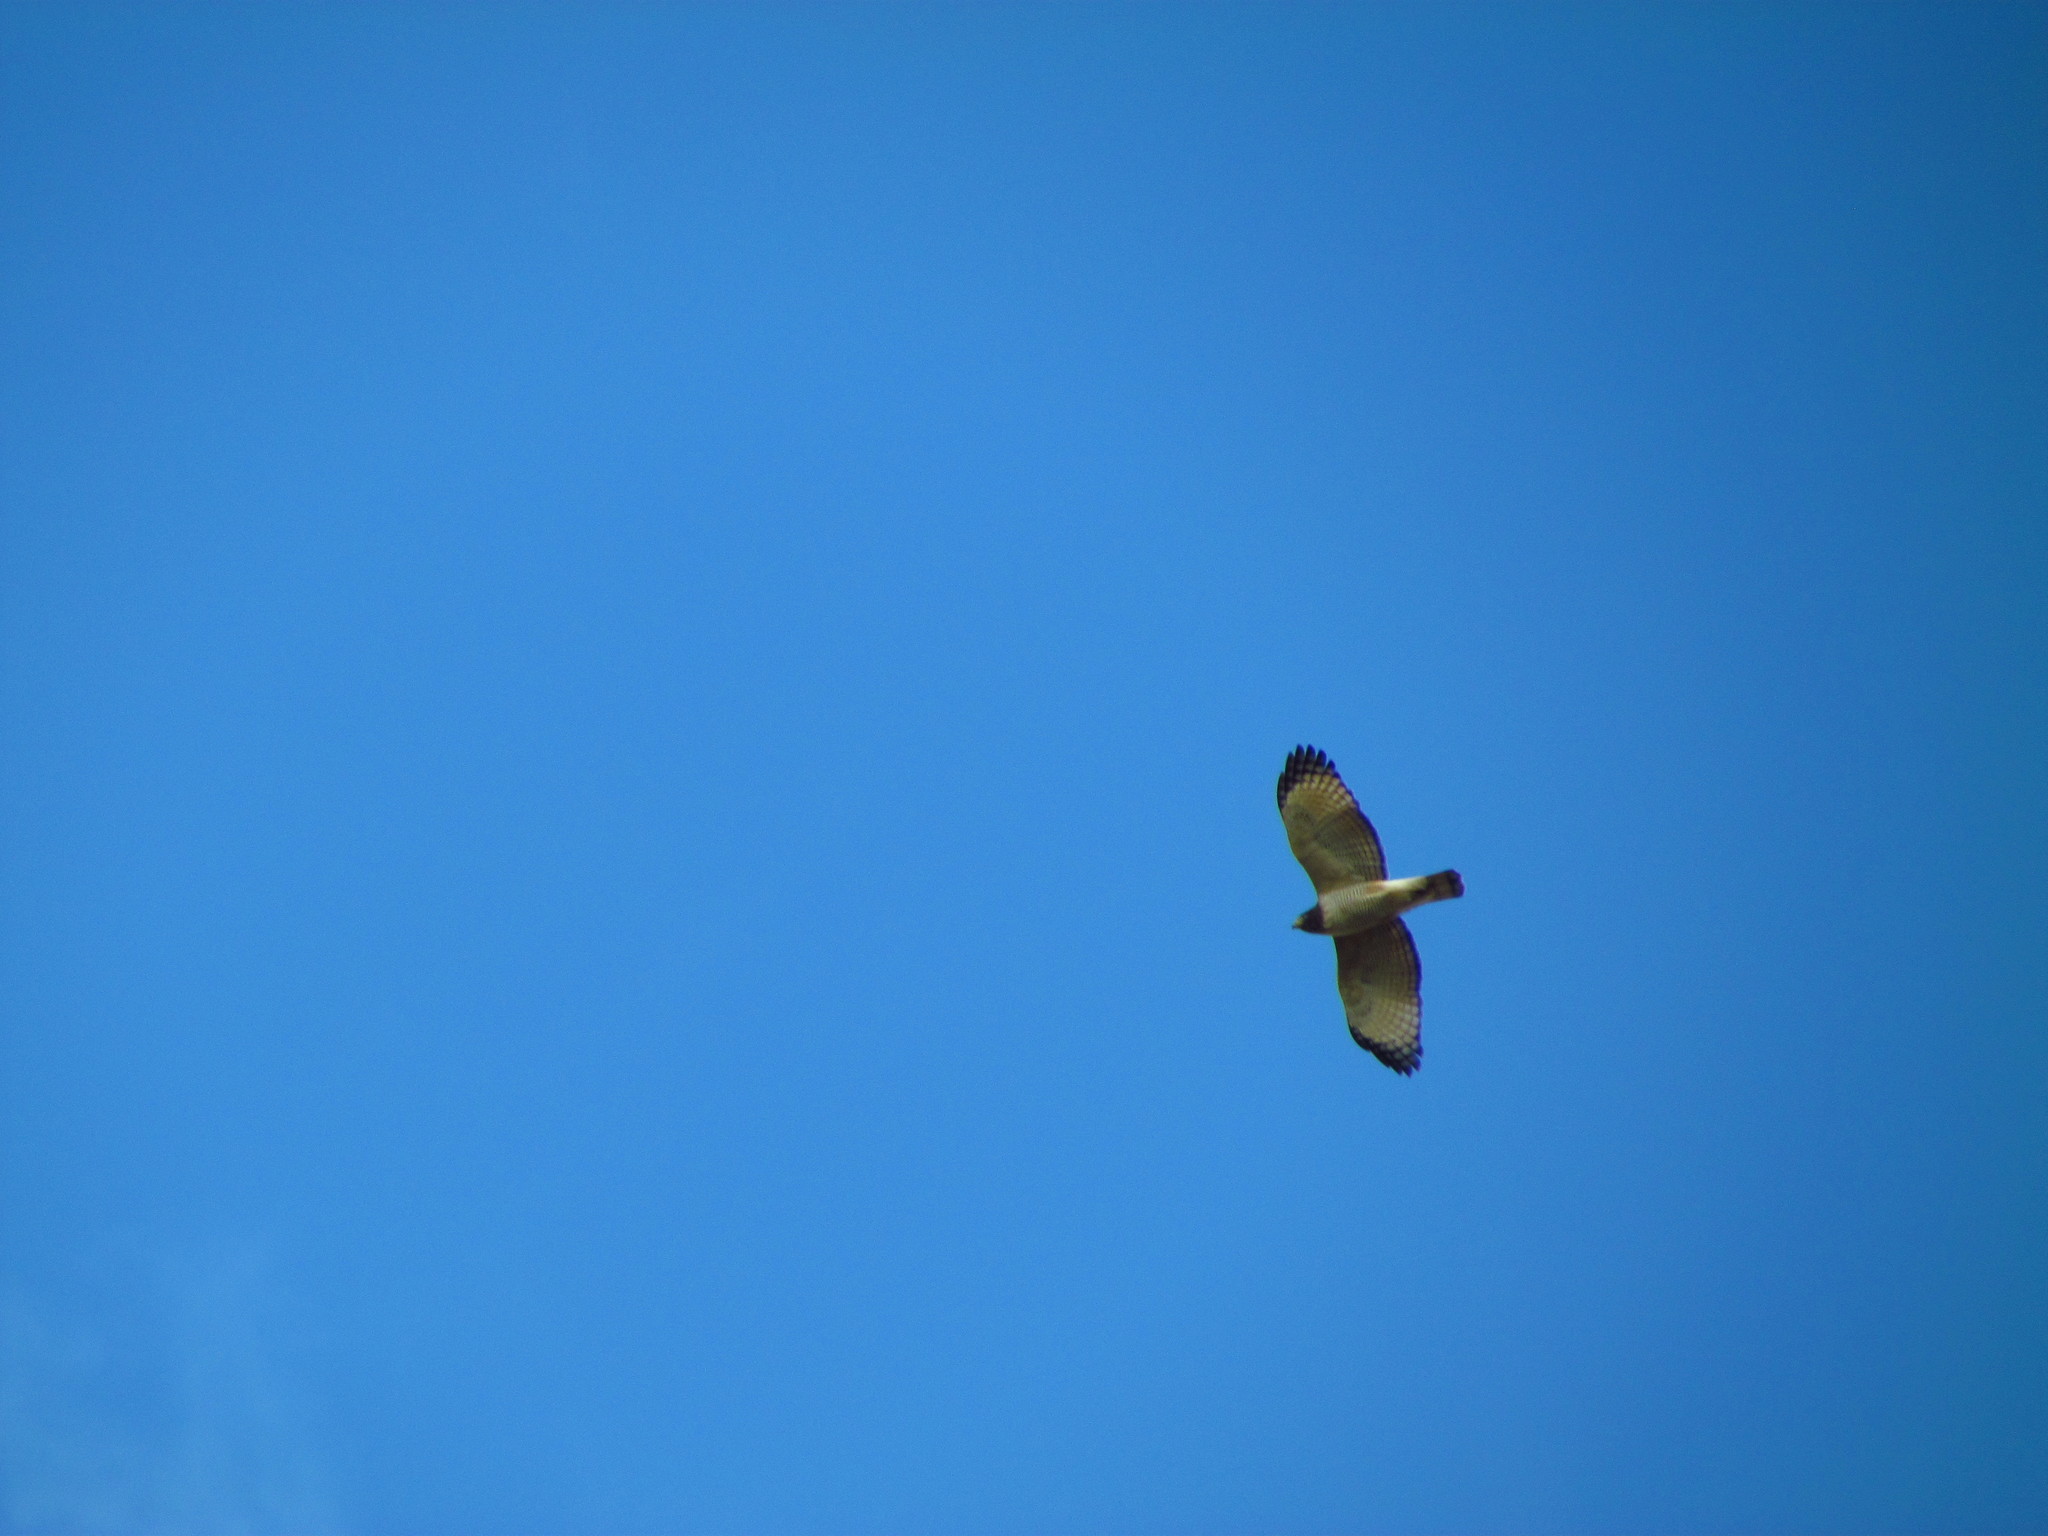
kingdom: Animalia
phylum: Chordata
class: Aves
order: Accipitriformes
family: Accipitridae
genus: Rupornis
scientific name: Rupornis magnirostris
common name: Roadside hawk
